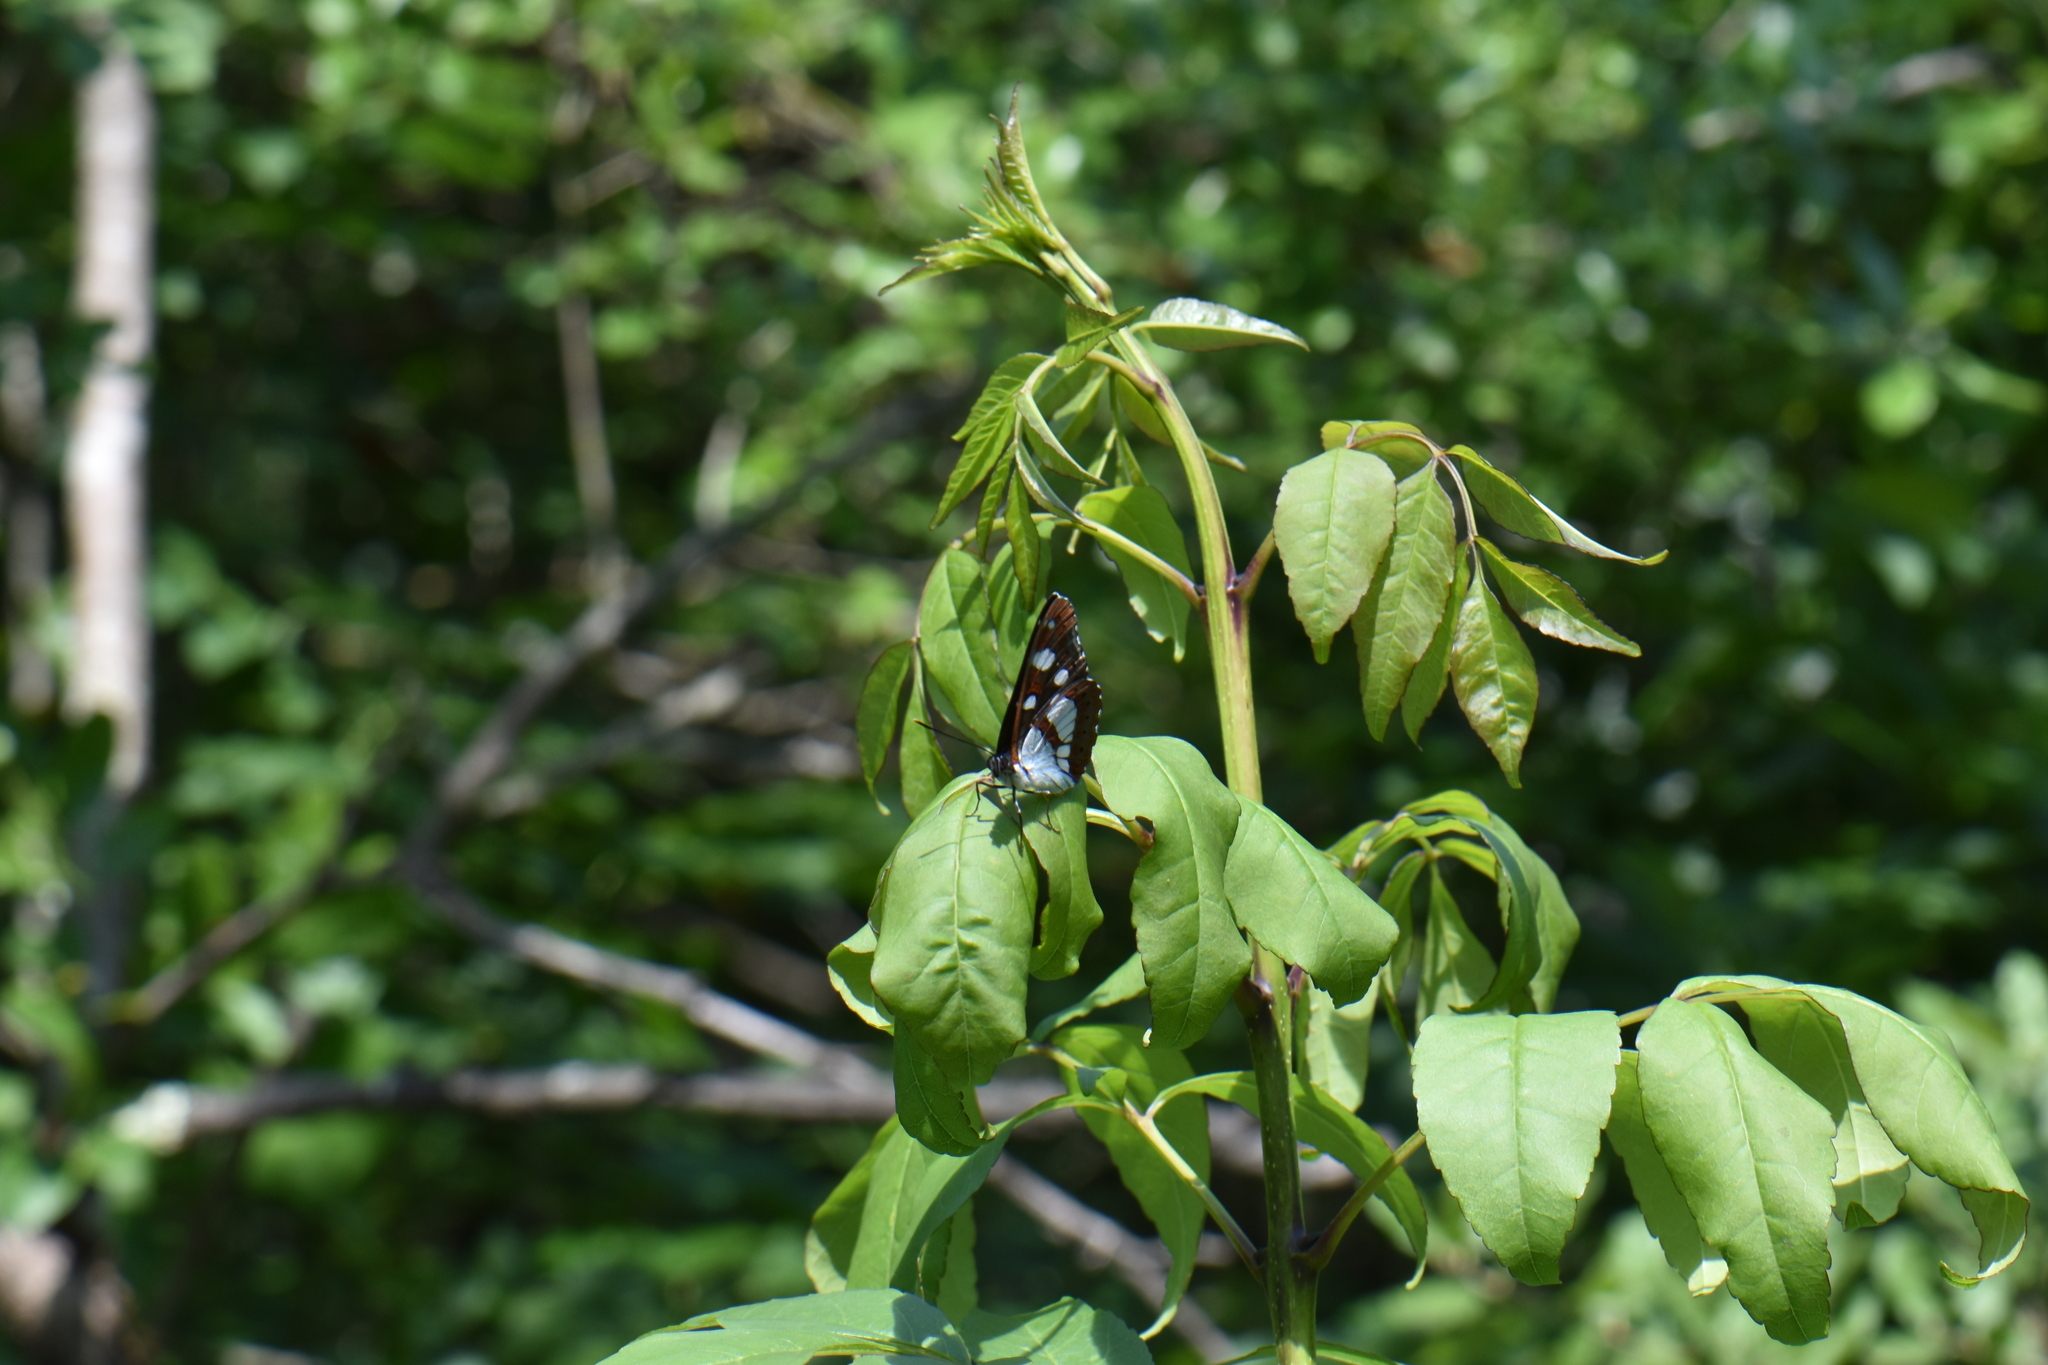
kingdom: Animalia
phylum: Arthropoda
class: Insecta
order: Lepidoptera
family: Nymphalidae
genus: Limenitis
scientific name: Limenitis reducta
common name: Southern white admiral
